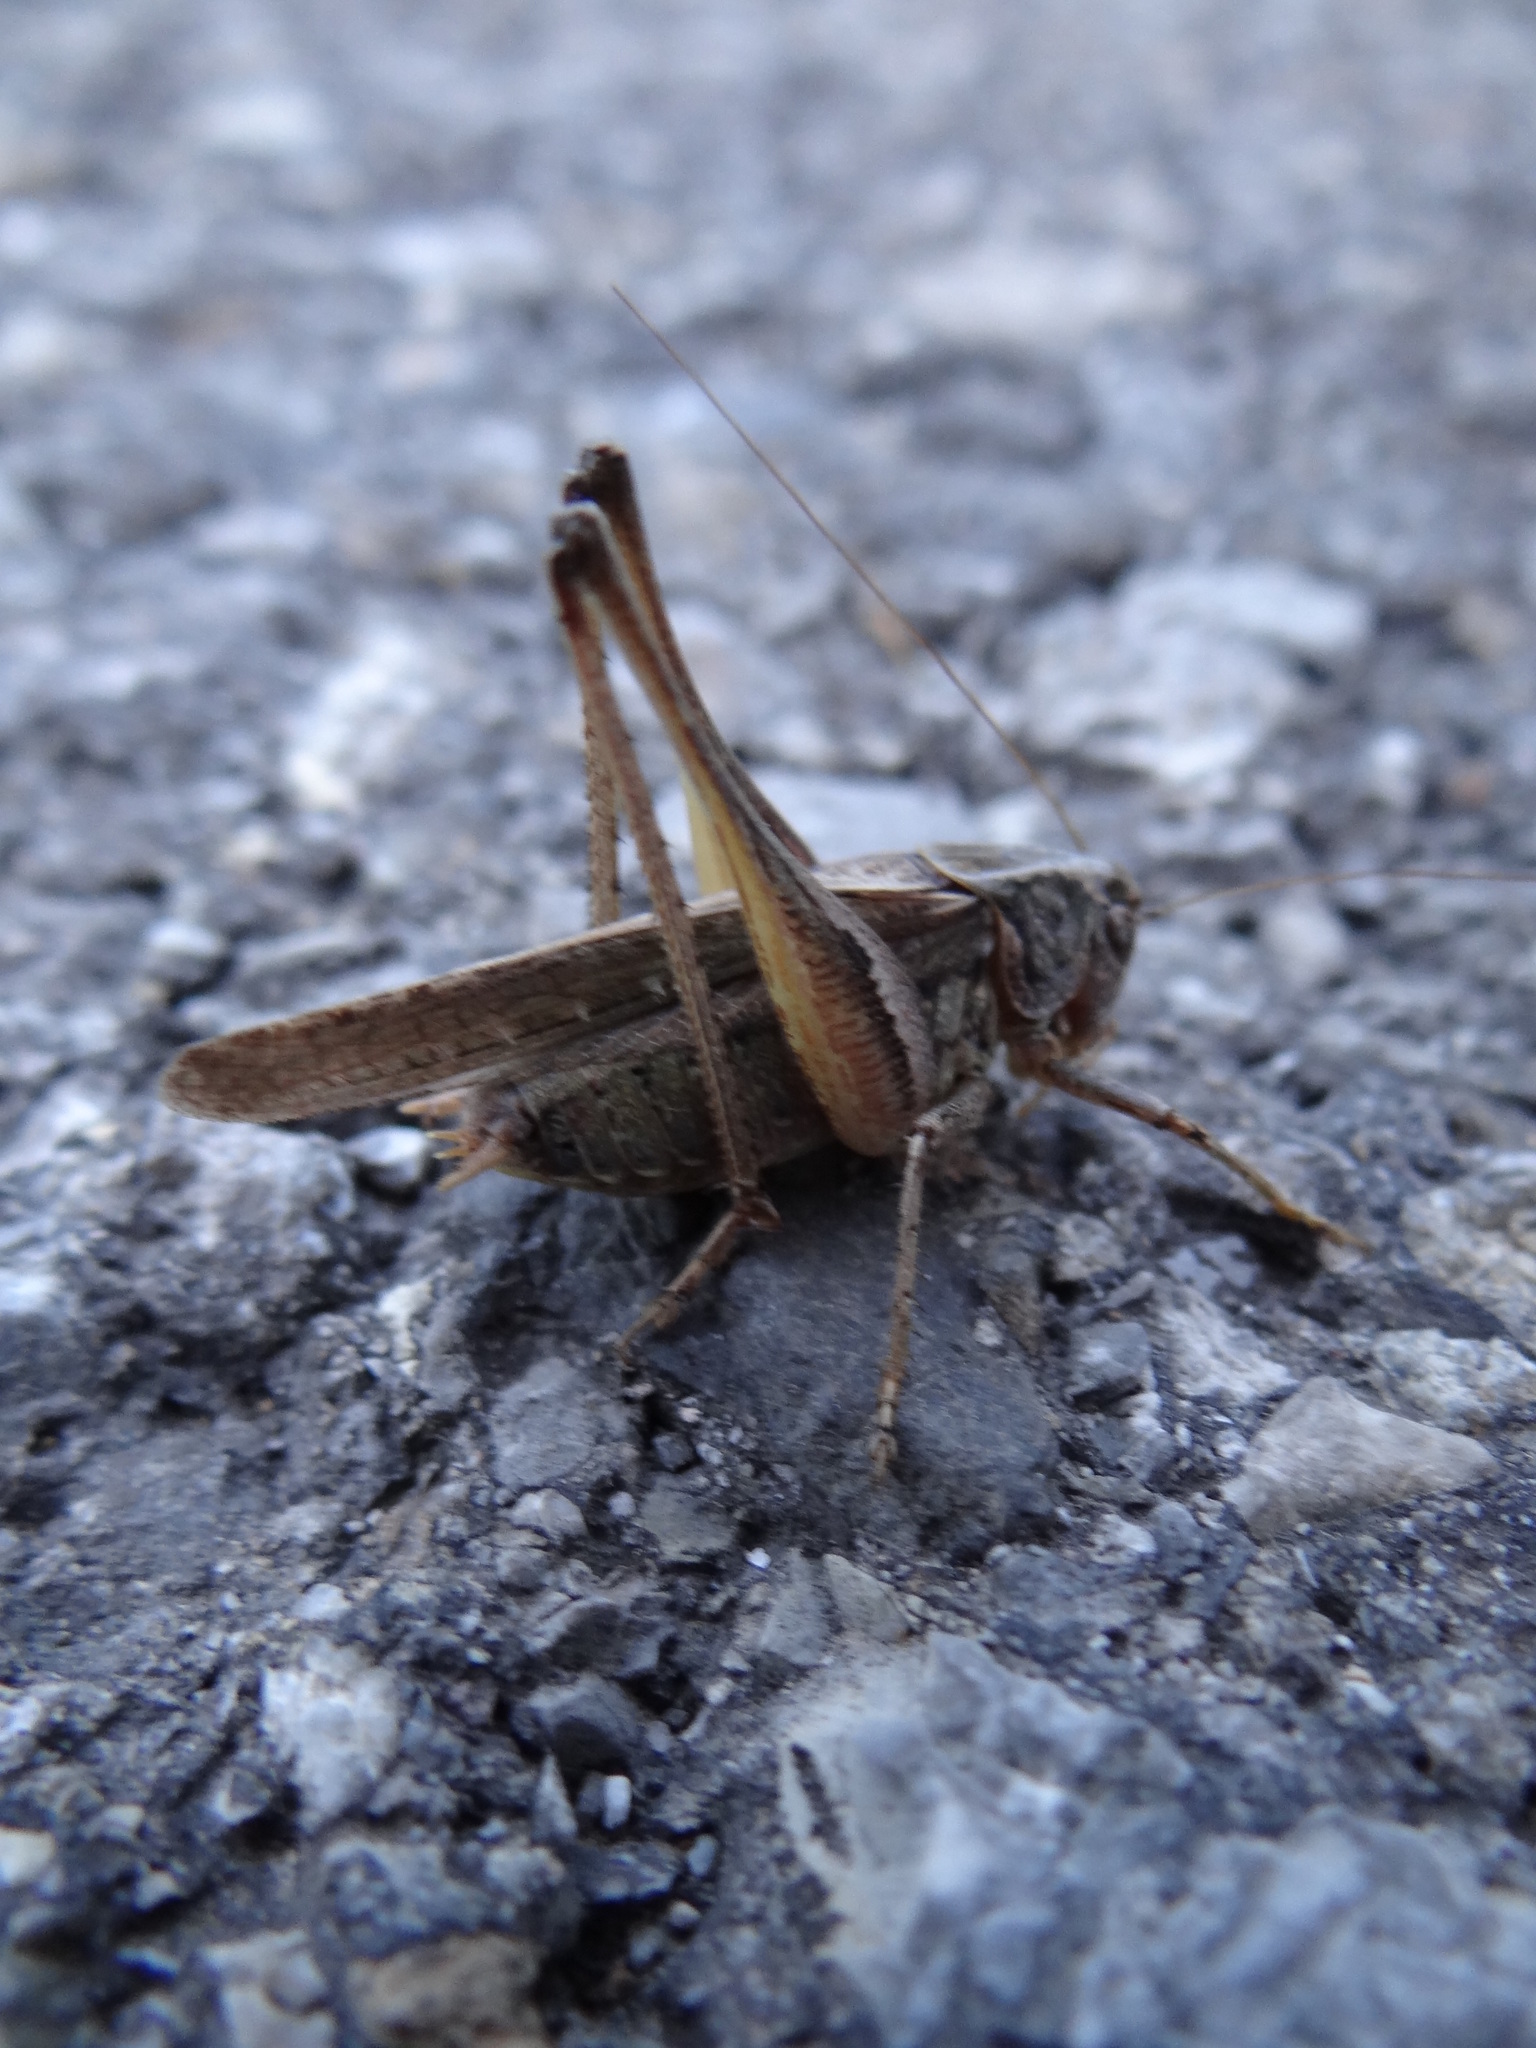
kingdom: Animalia
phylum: Arthropoda
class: Insecta
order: Orthoptera
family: Tettigoniidae
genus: Platycleis
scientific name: Platycleis albopunctata
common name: Grey bush-cricket
